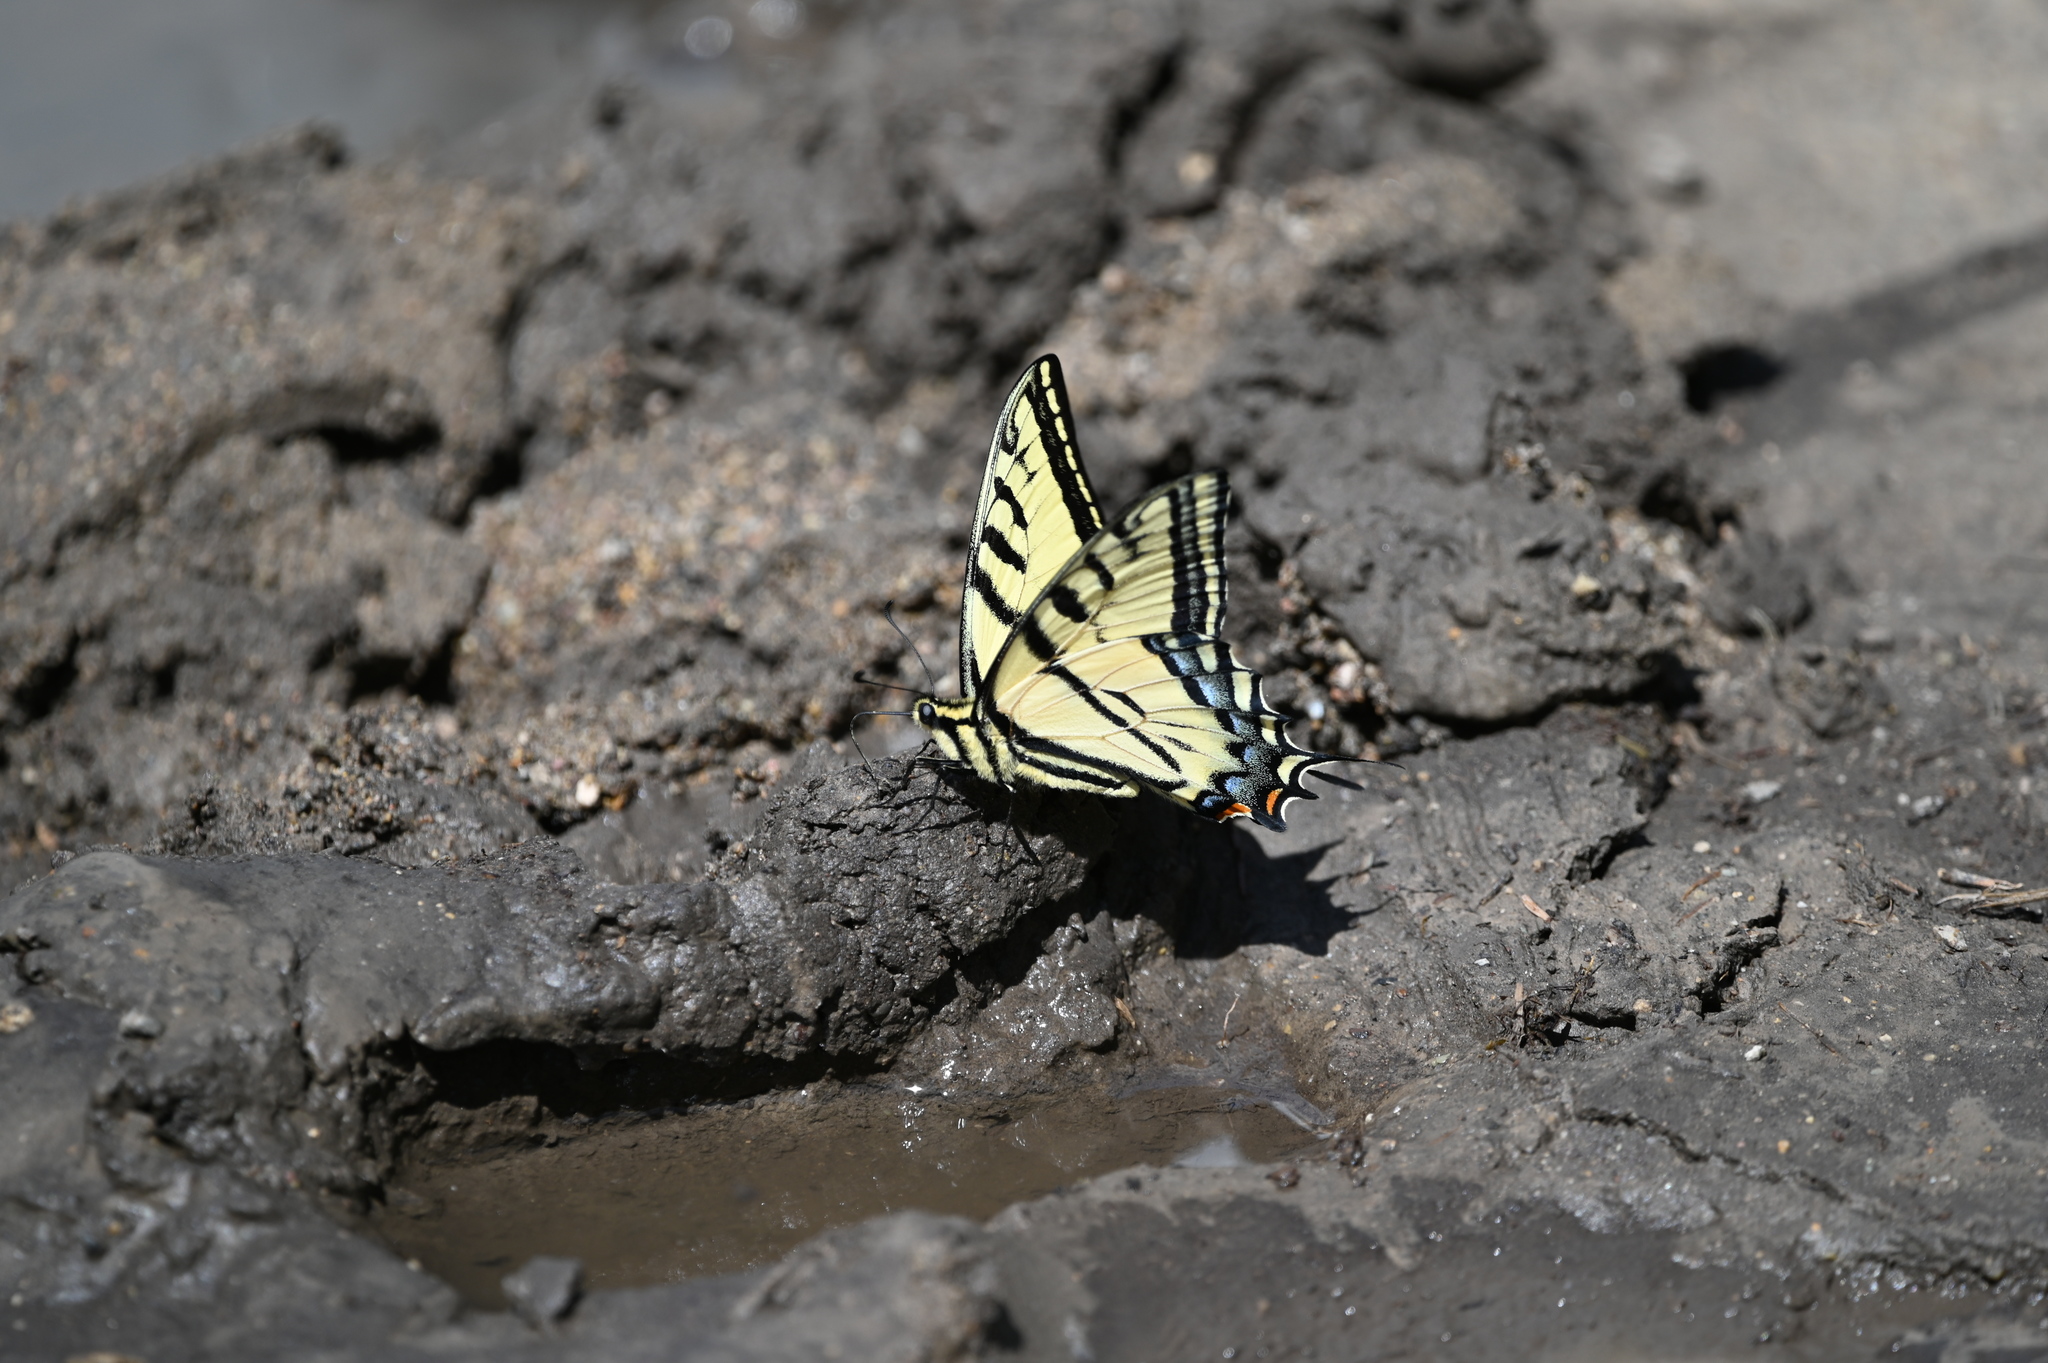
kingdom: Animalia
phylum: Arthropoda
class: Insecta
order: Lepidoptera
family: Papilionidae
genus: Papilio
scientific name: Papilio multicaudata
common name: Two-tailed tiger swallowtail
